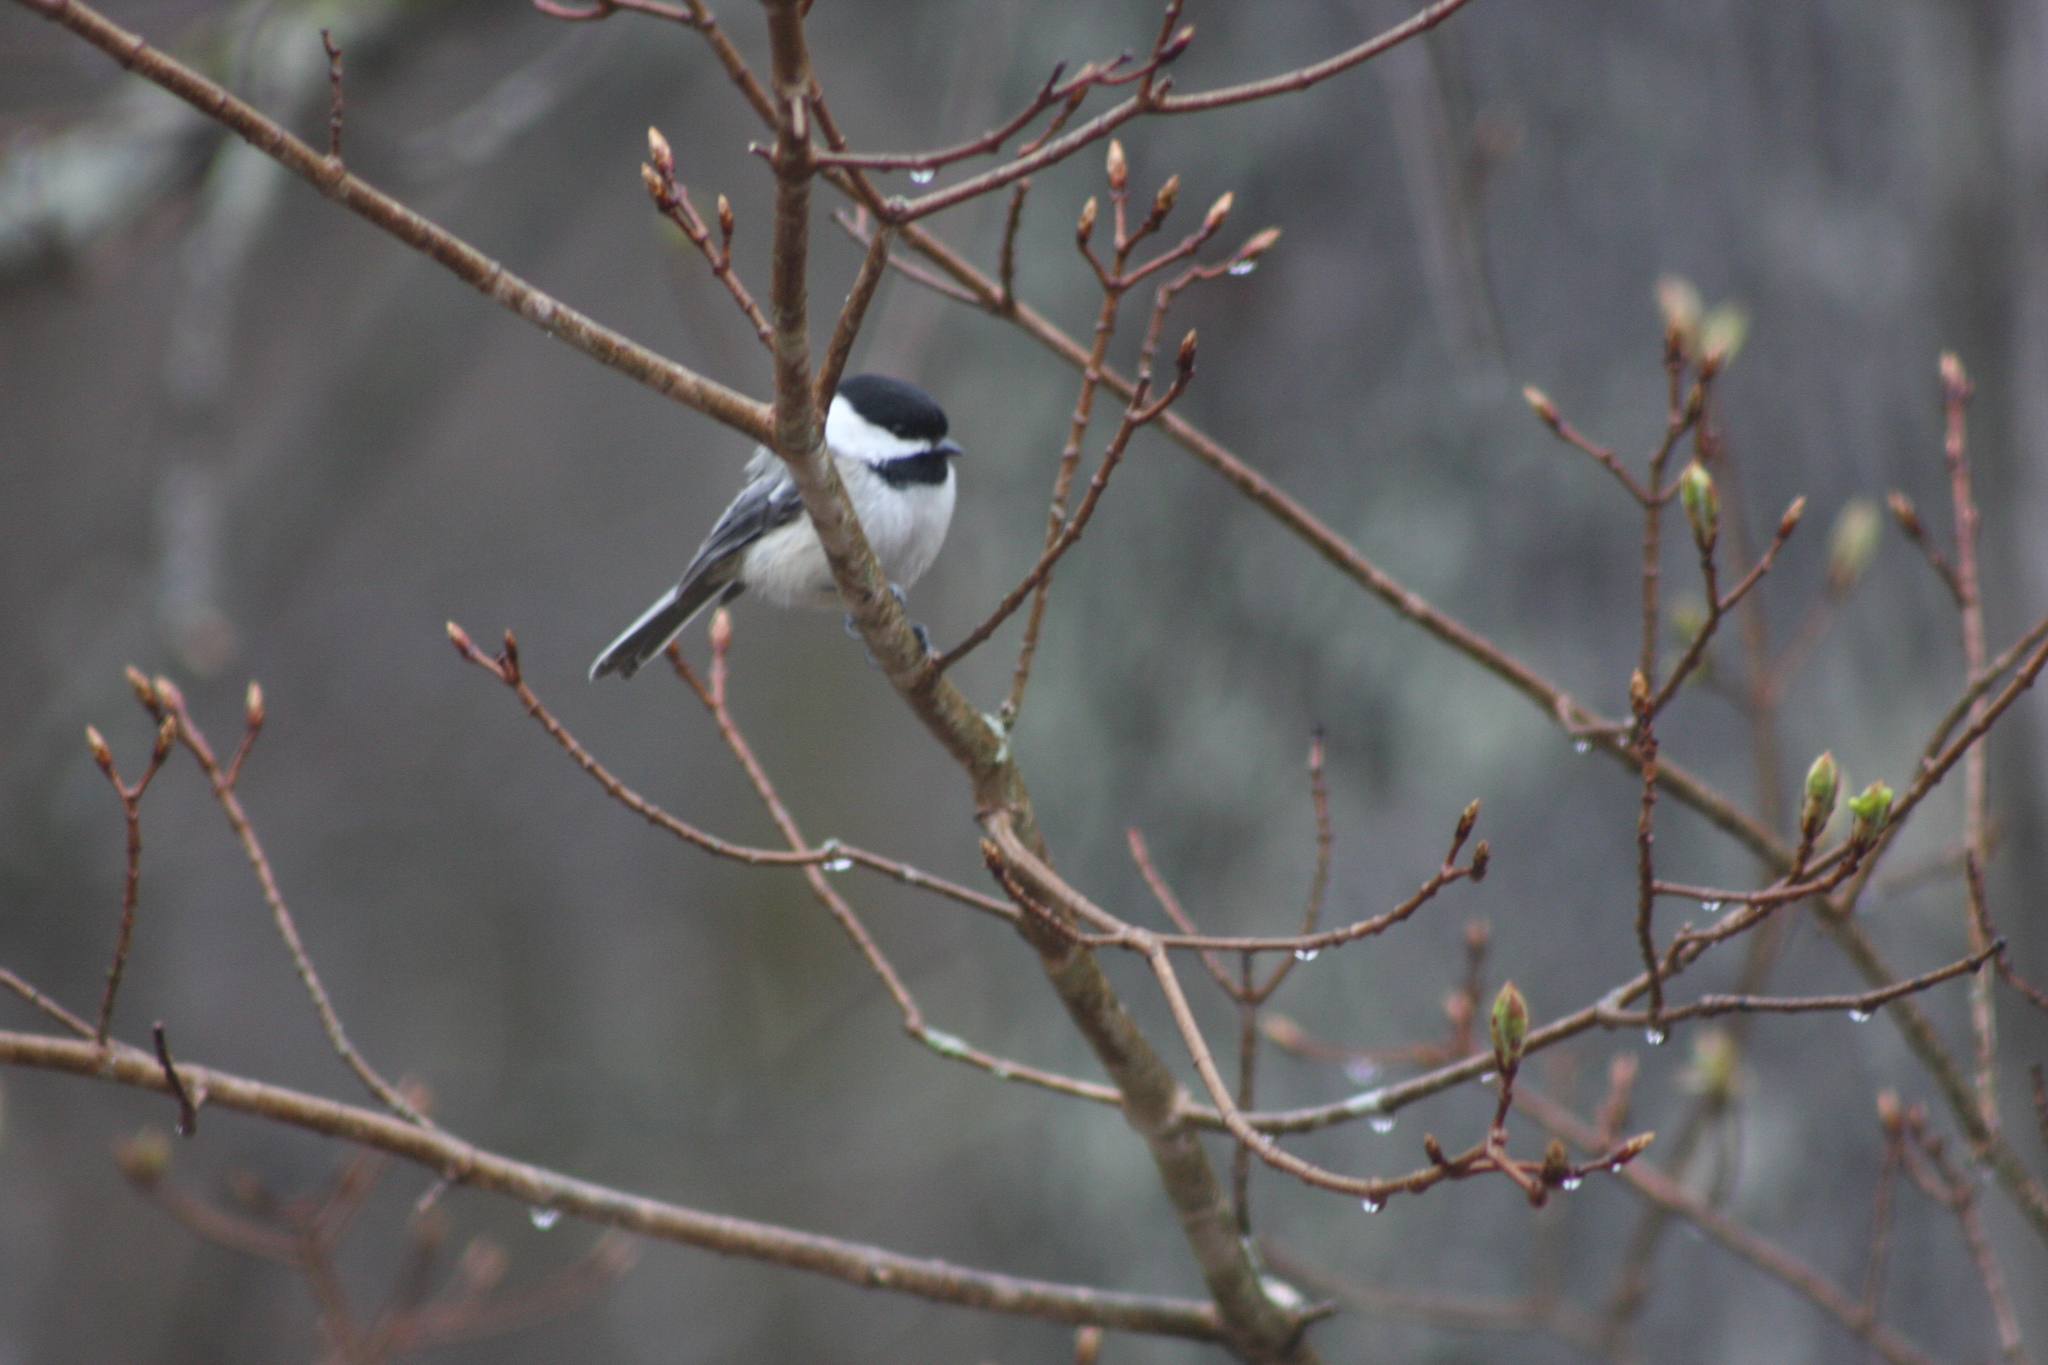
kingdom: Animalia
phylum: Chordata
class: Aves
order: Passeriformes
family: Paridae
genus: Poecile
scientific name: Poecile atricapillus
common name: Black-capped chickadee
